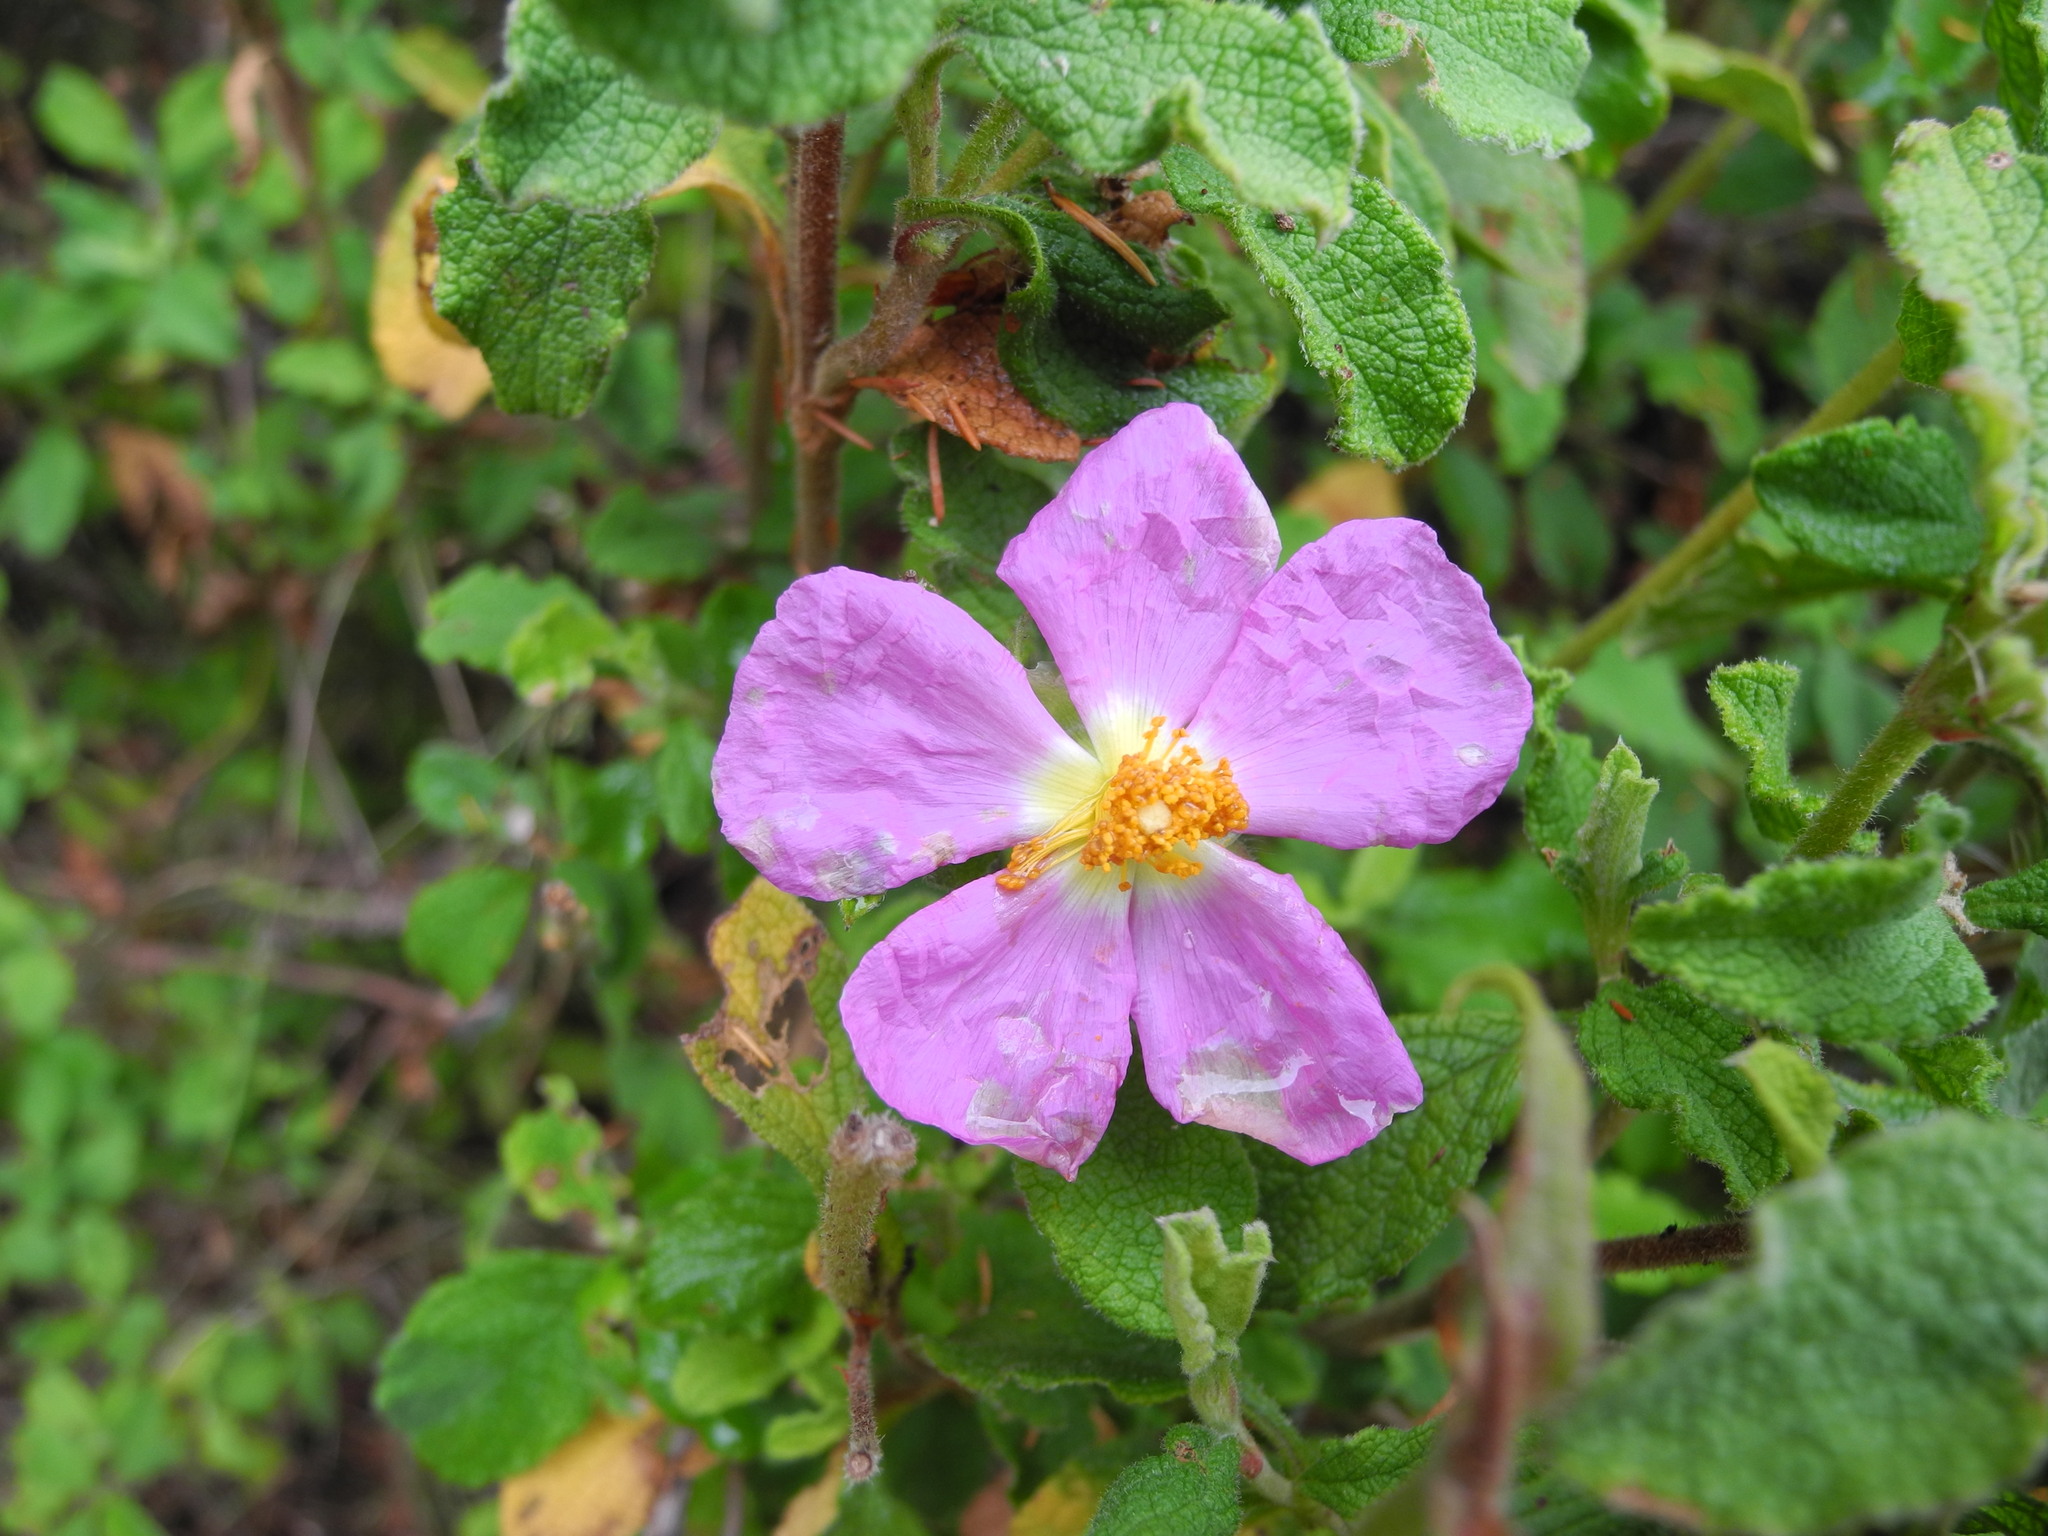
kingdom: Plantae
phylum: Tracheophyta
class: Magnoliopsida
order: Malvales
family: Cistaceae
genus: Cistus
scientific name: Cistus creticus
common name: Cretan rockrose
